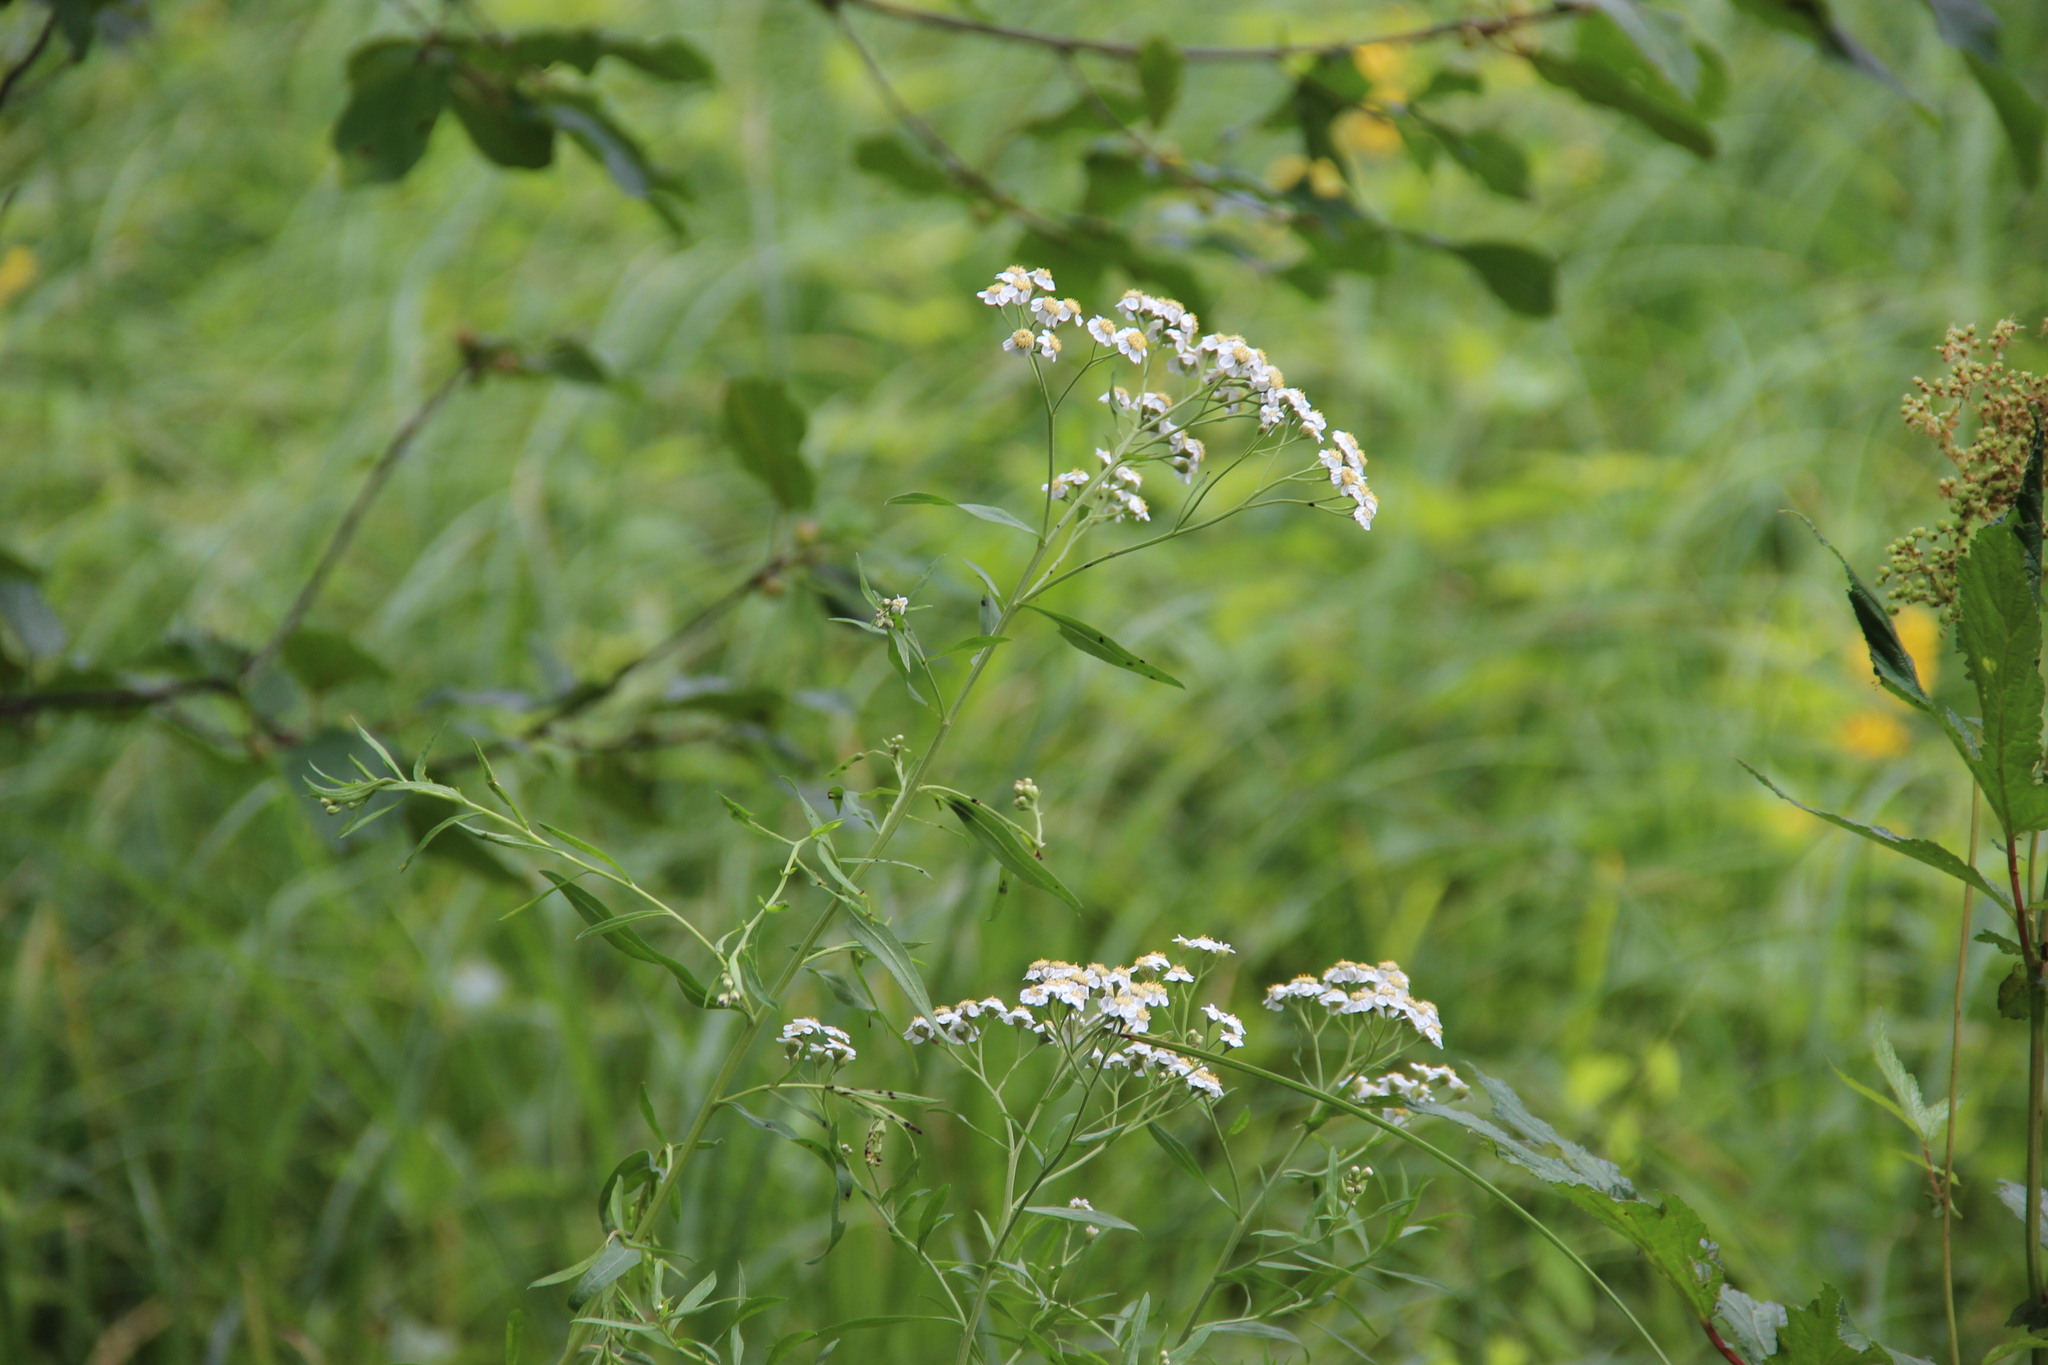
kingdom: Plantae
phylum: Tracheophyta
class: Magnoliopsida
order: Asterales
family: Asteraceae
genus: Achillea
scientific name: Achillea salicifolia
